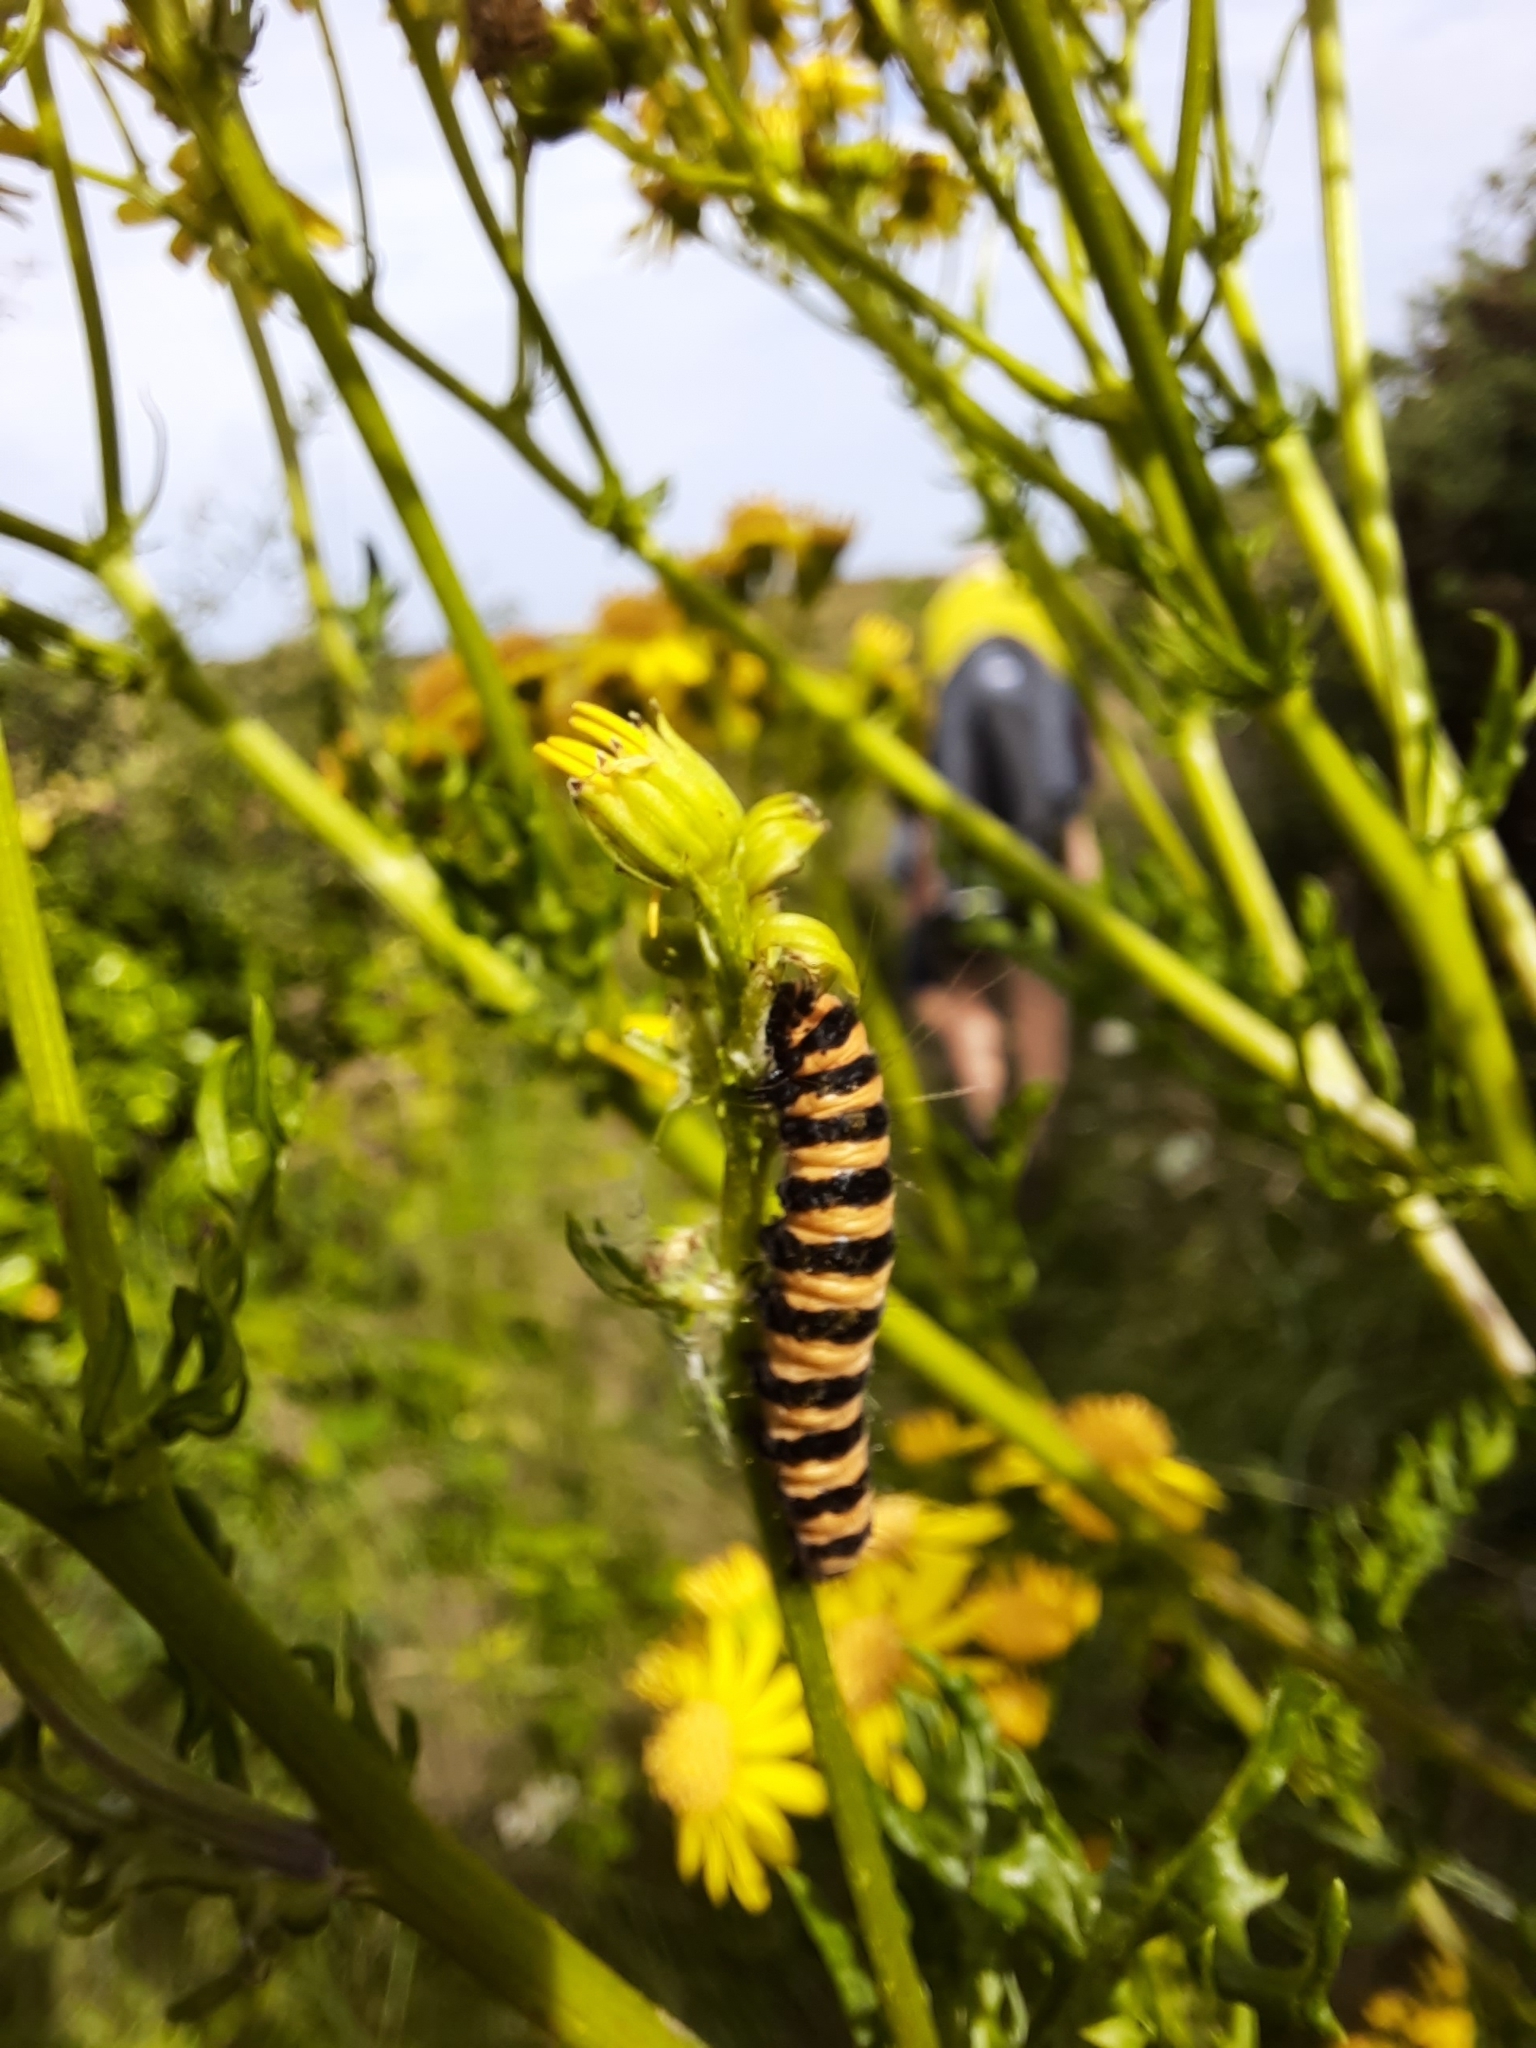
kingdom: Animalia
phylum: Arthropoda
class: Insecta
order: Lepidoptera
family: Erebidae
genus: Tyria
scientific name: Tyria jacobaeae
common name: Cinnabar
